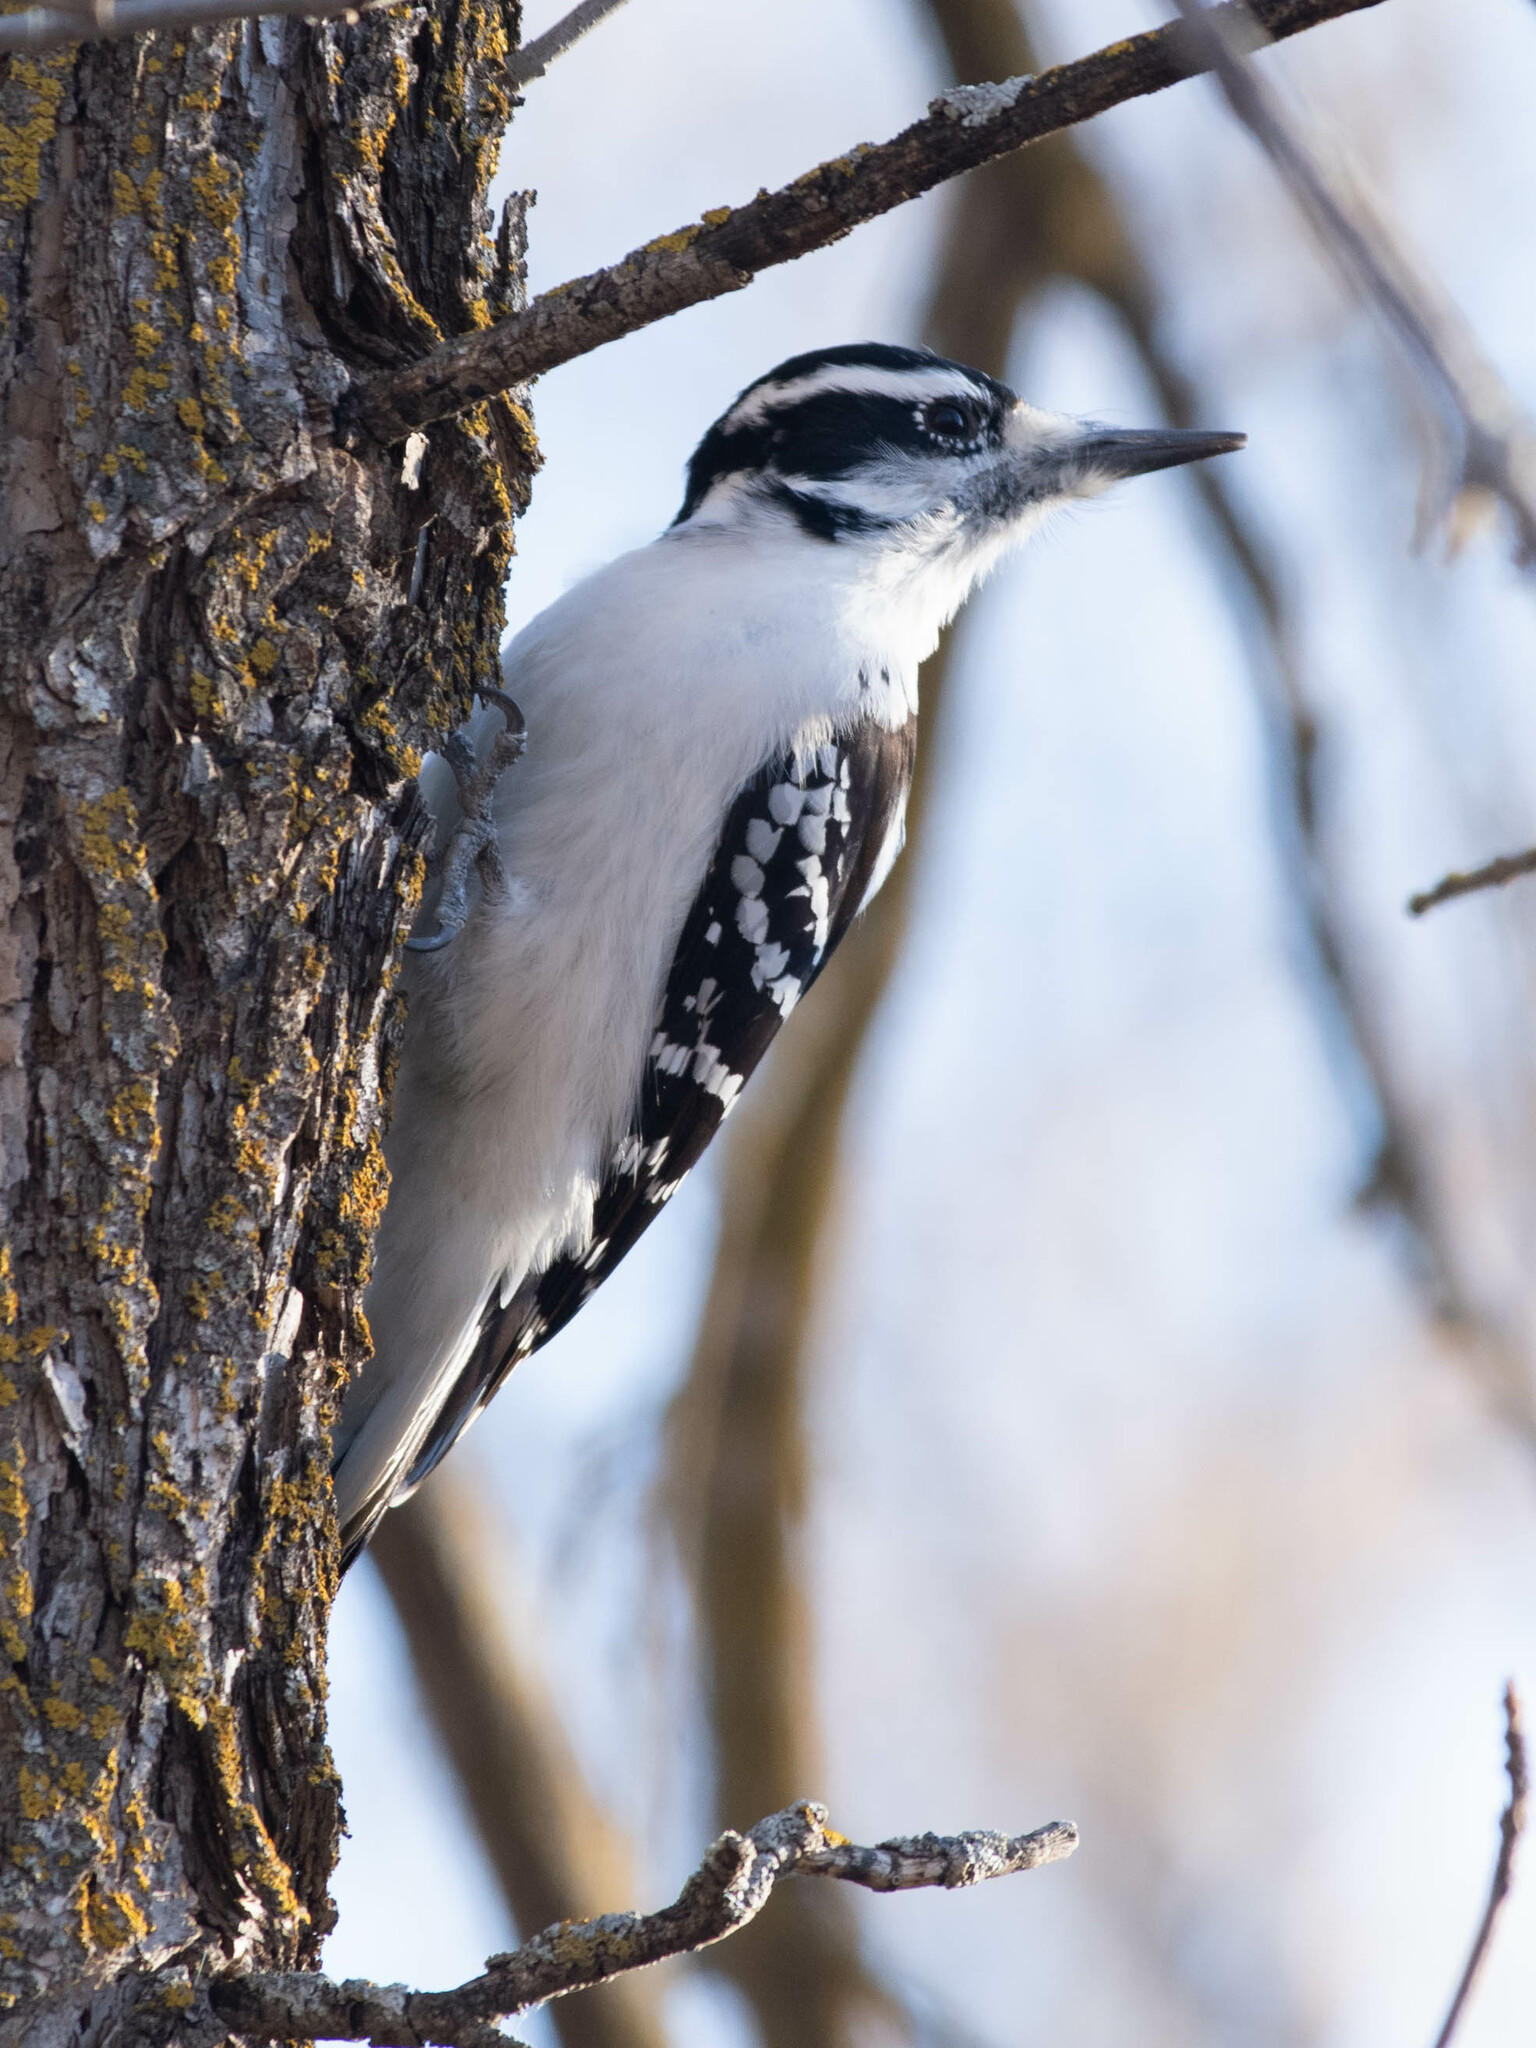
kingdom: Animalia
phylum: Chordata
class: Aves
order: Piciformes
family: Picidae
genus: Leuconotopicus
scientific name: Leuconotopicus villosus
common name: Hairy woodpecker
